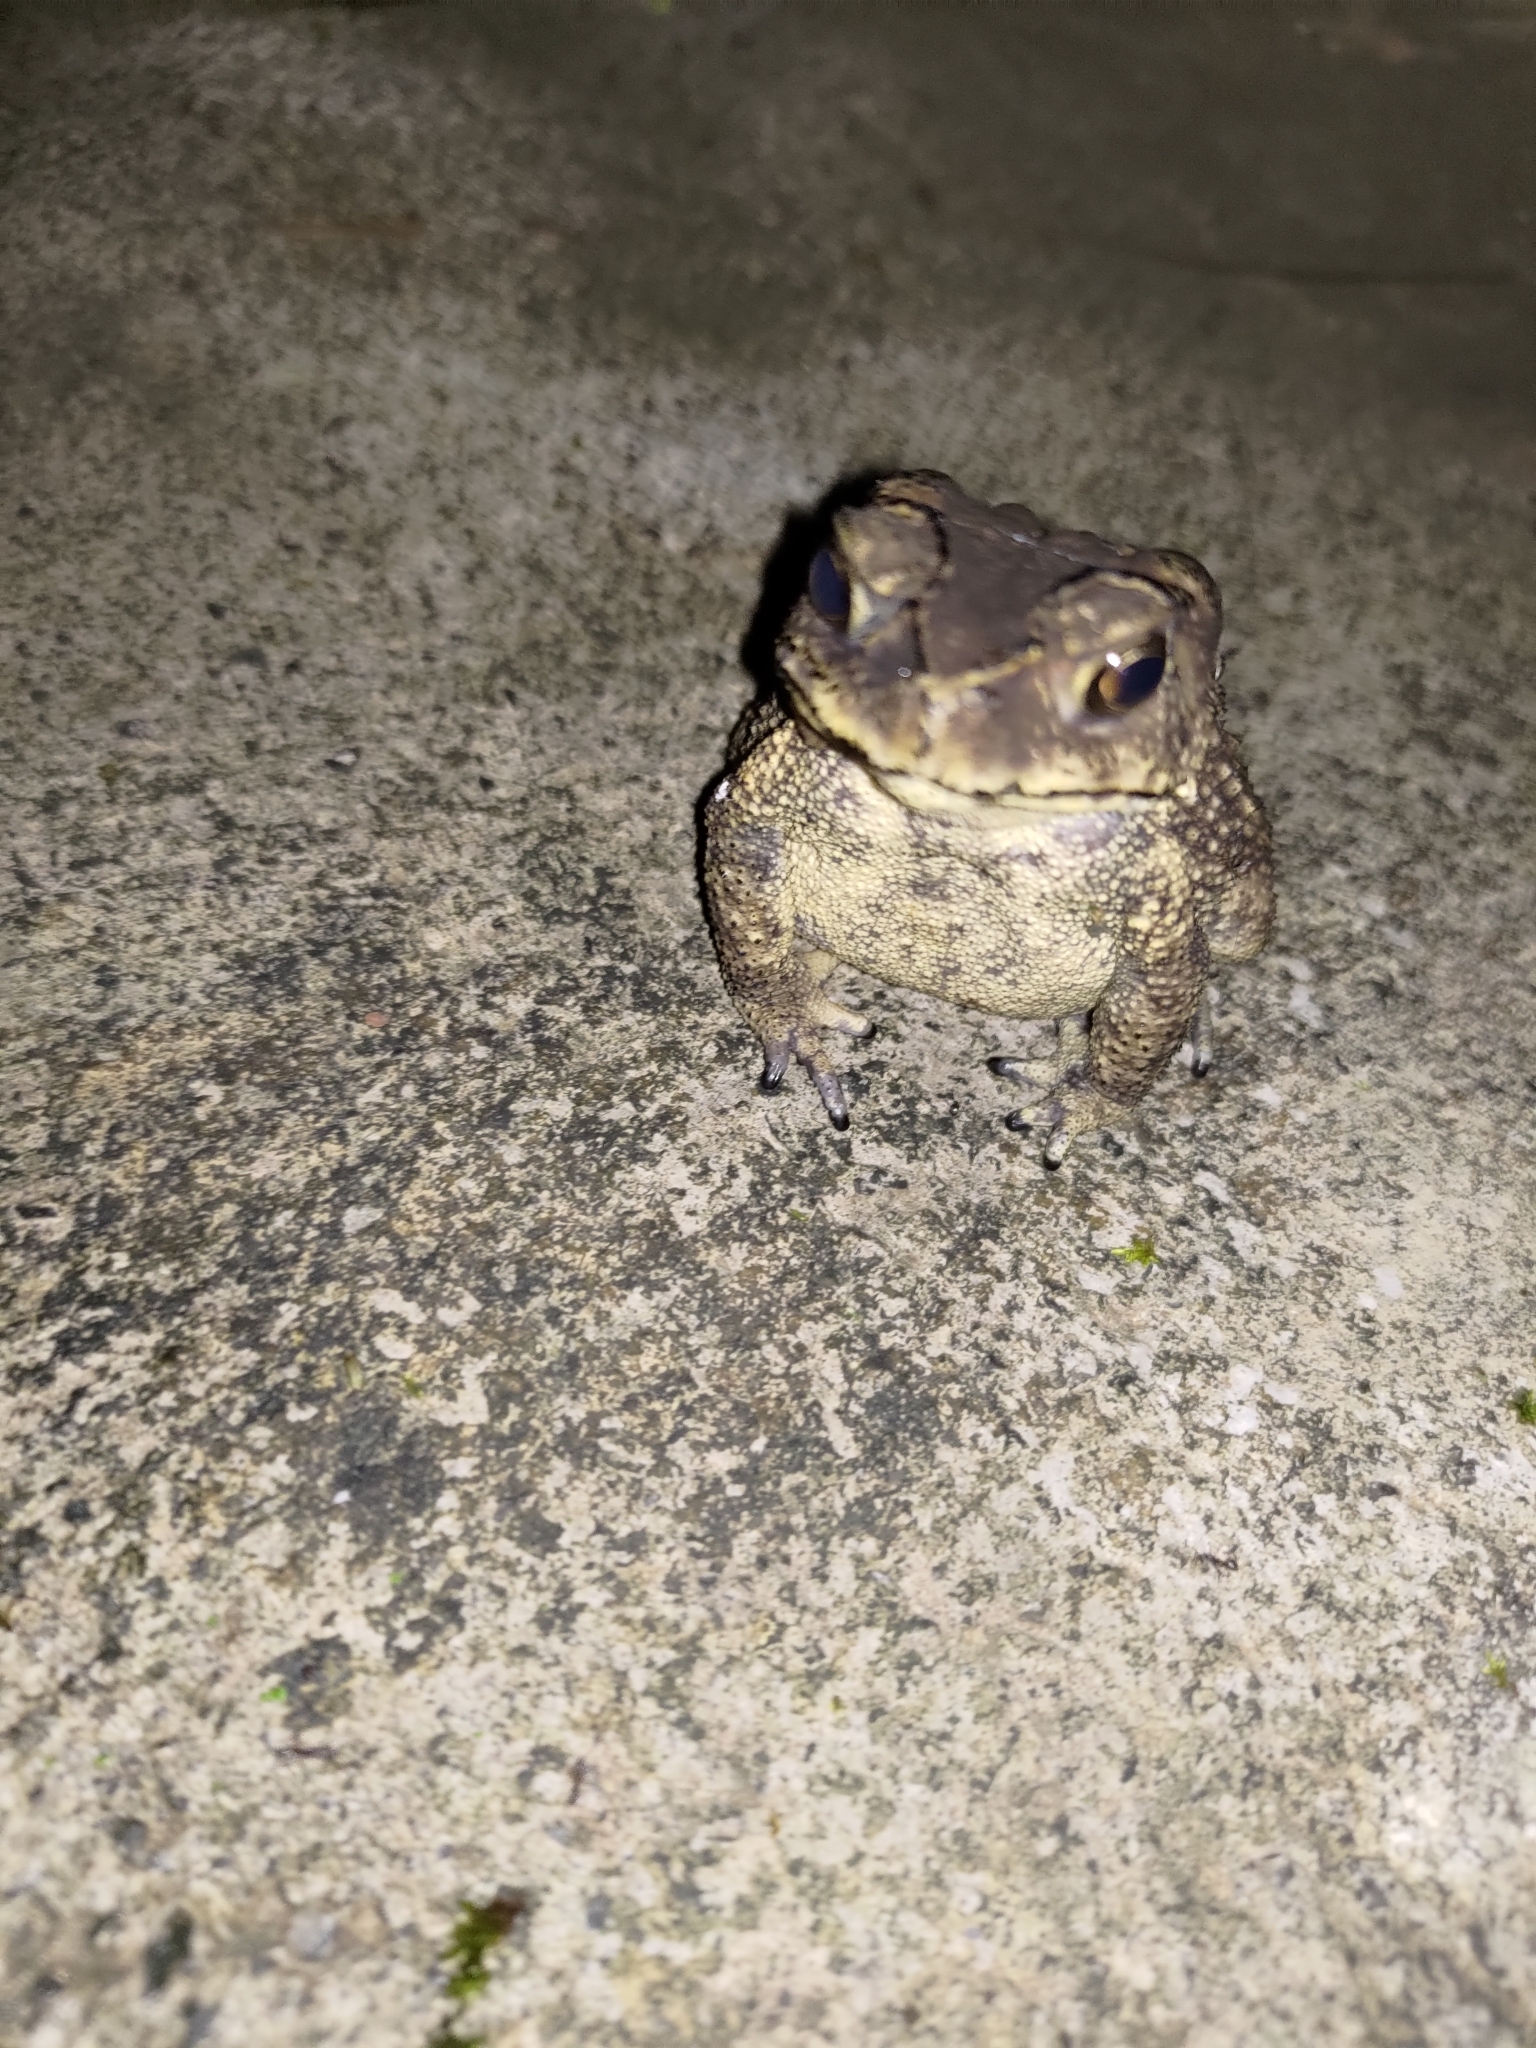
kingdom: Animalia
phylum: Chordata
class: Amphibia
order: Anura
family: Bufonidae
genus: Duttaphrynus
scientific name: Duttaphrynus melanostictus
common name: Common sunda toad
